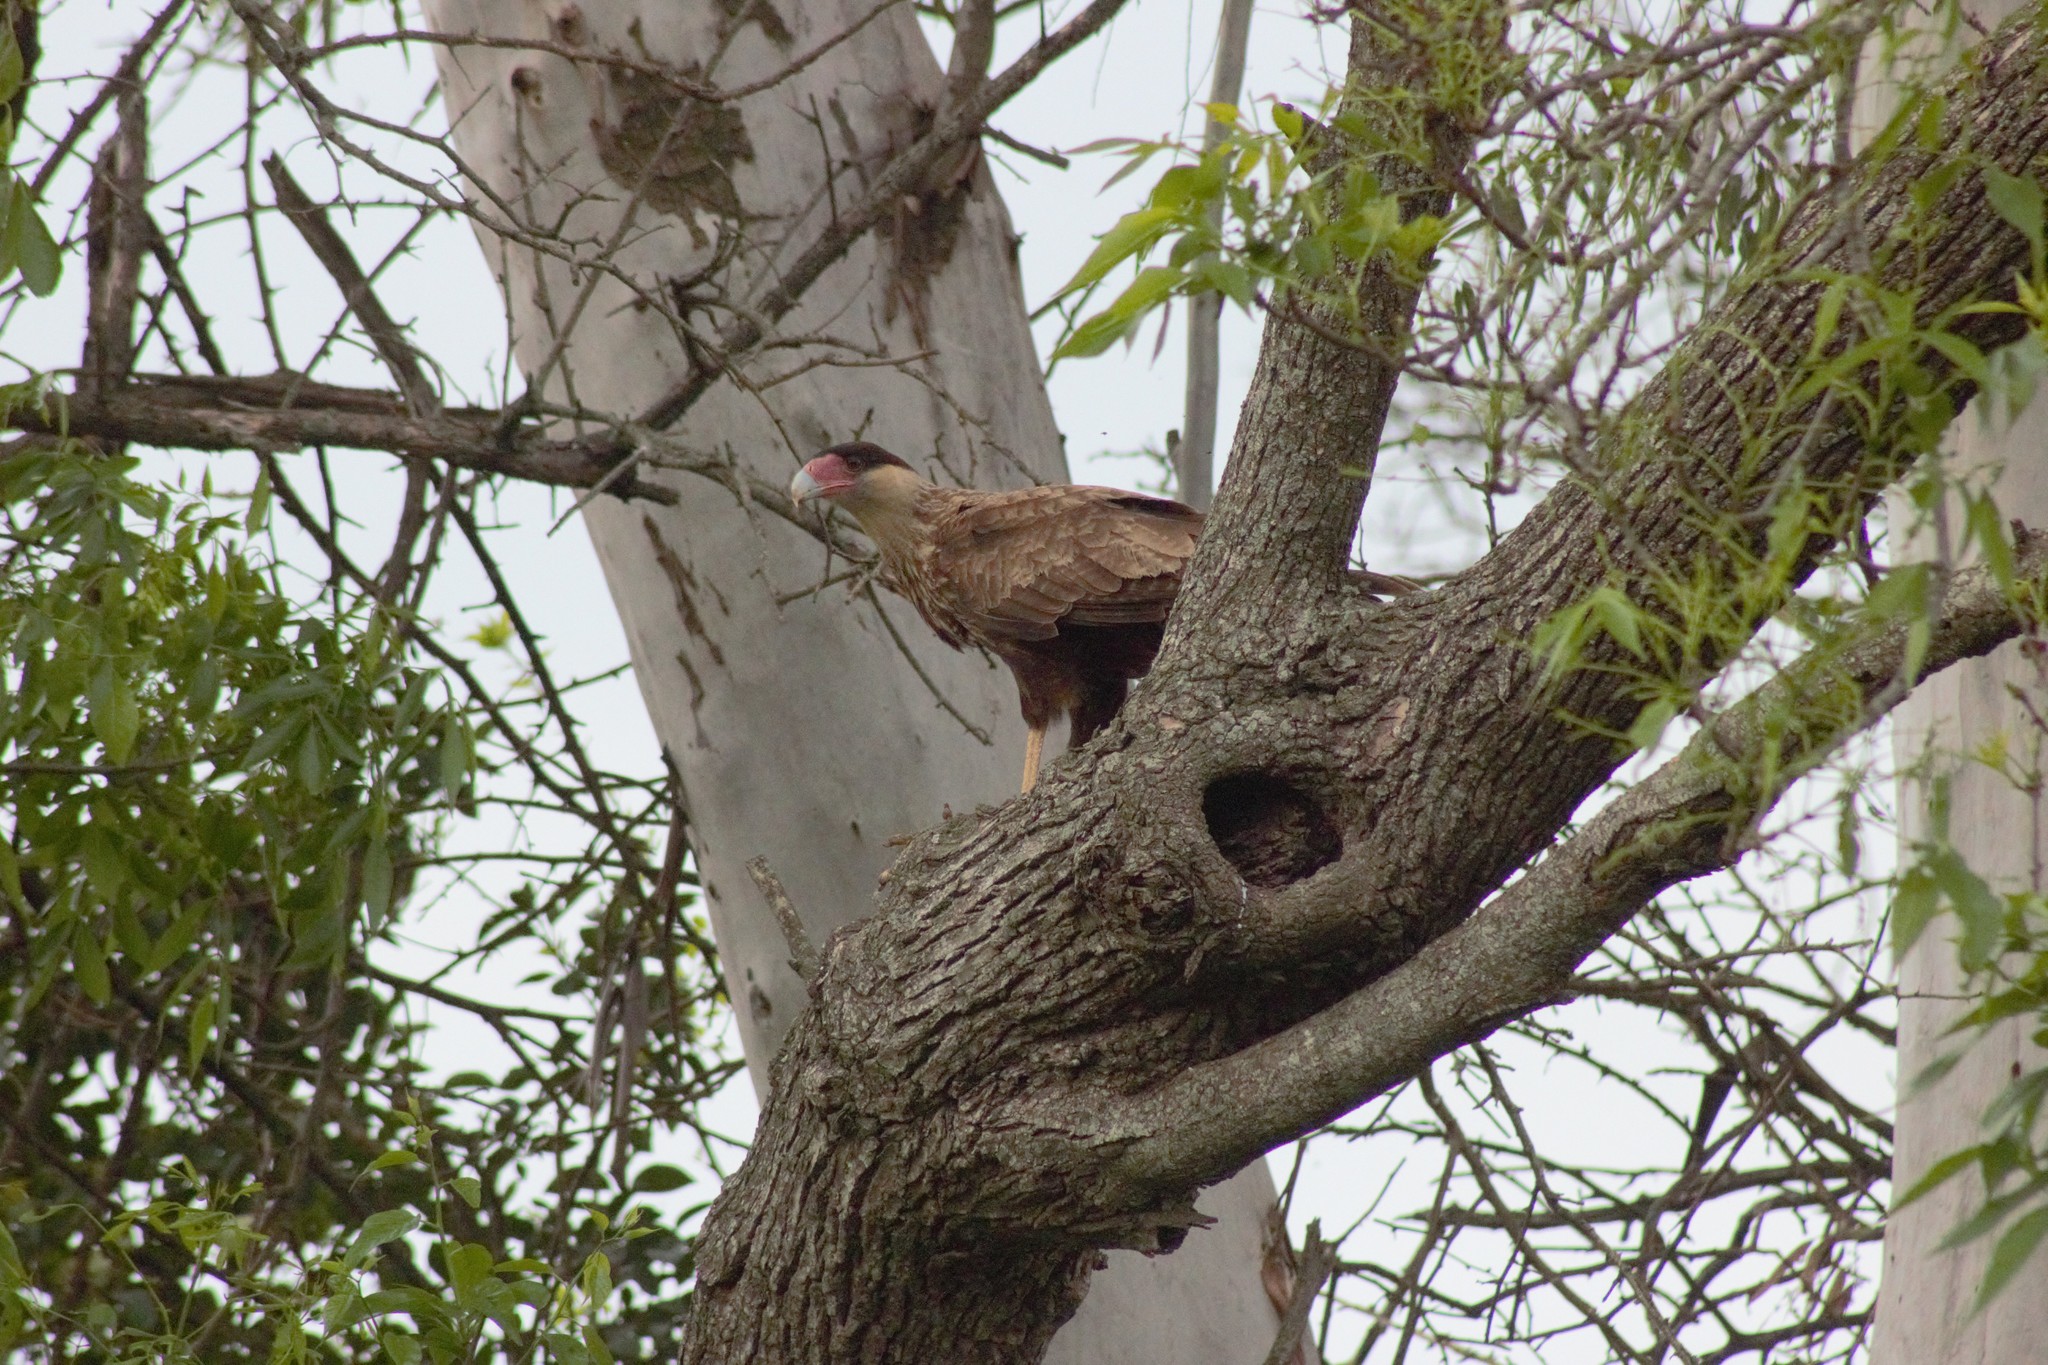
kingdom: Animalia
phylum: Chordata
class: Aves
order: Falconiformes
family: Falconidae
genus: Caracara
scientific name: Caracara plancus
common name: Southern caracara
